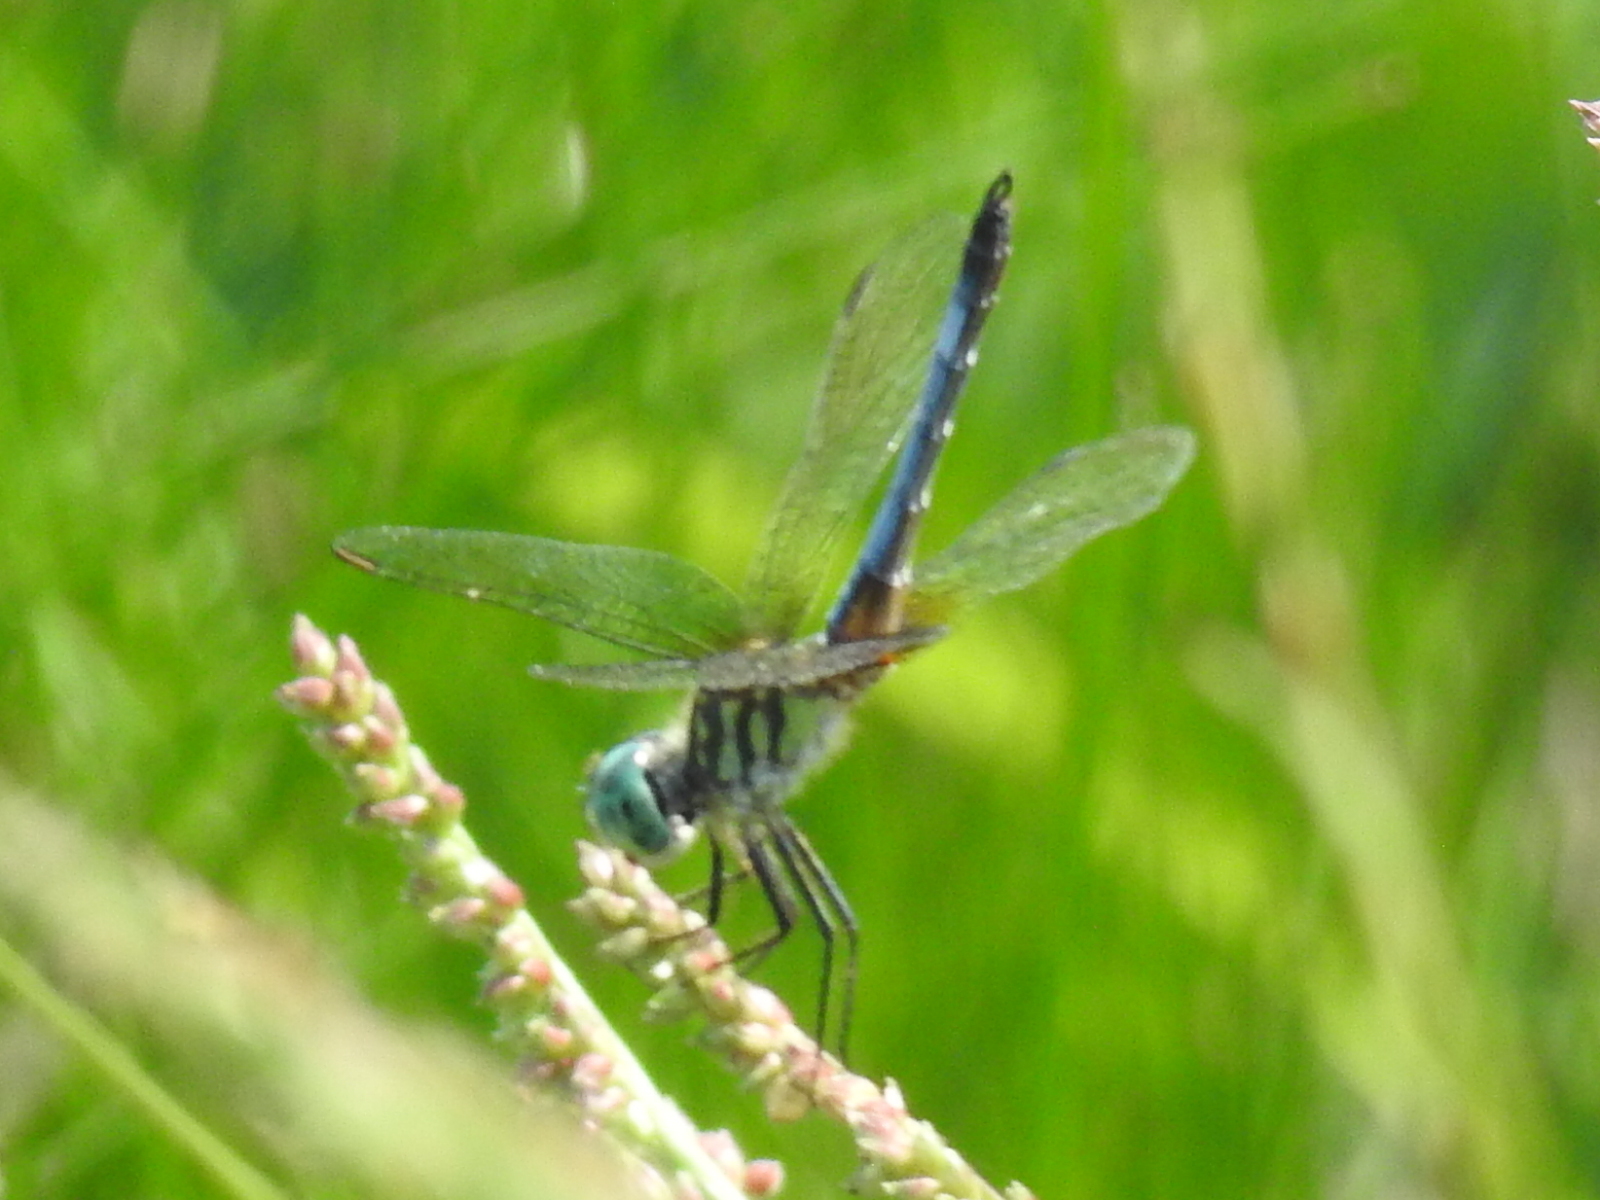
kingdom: Animalia
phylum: Arthropoda
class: Insecta
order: Odonata
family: Libellulidae
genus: Pachydiplax
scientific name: Pachydiplax longipennis
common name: Blue dasher
